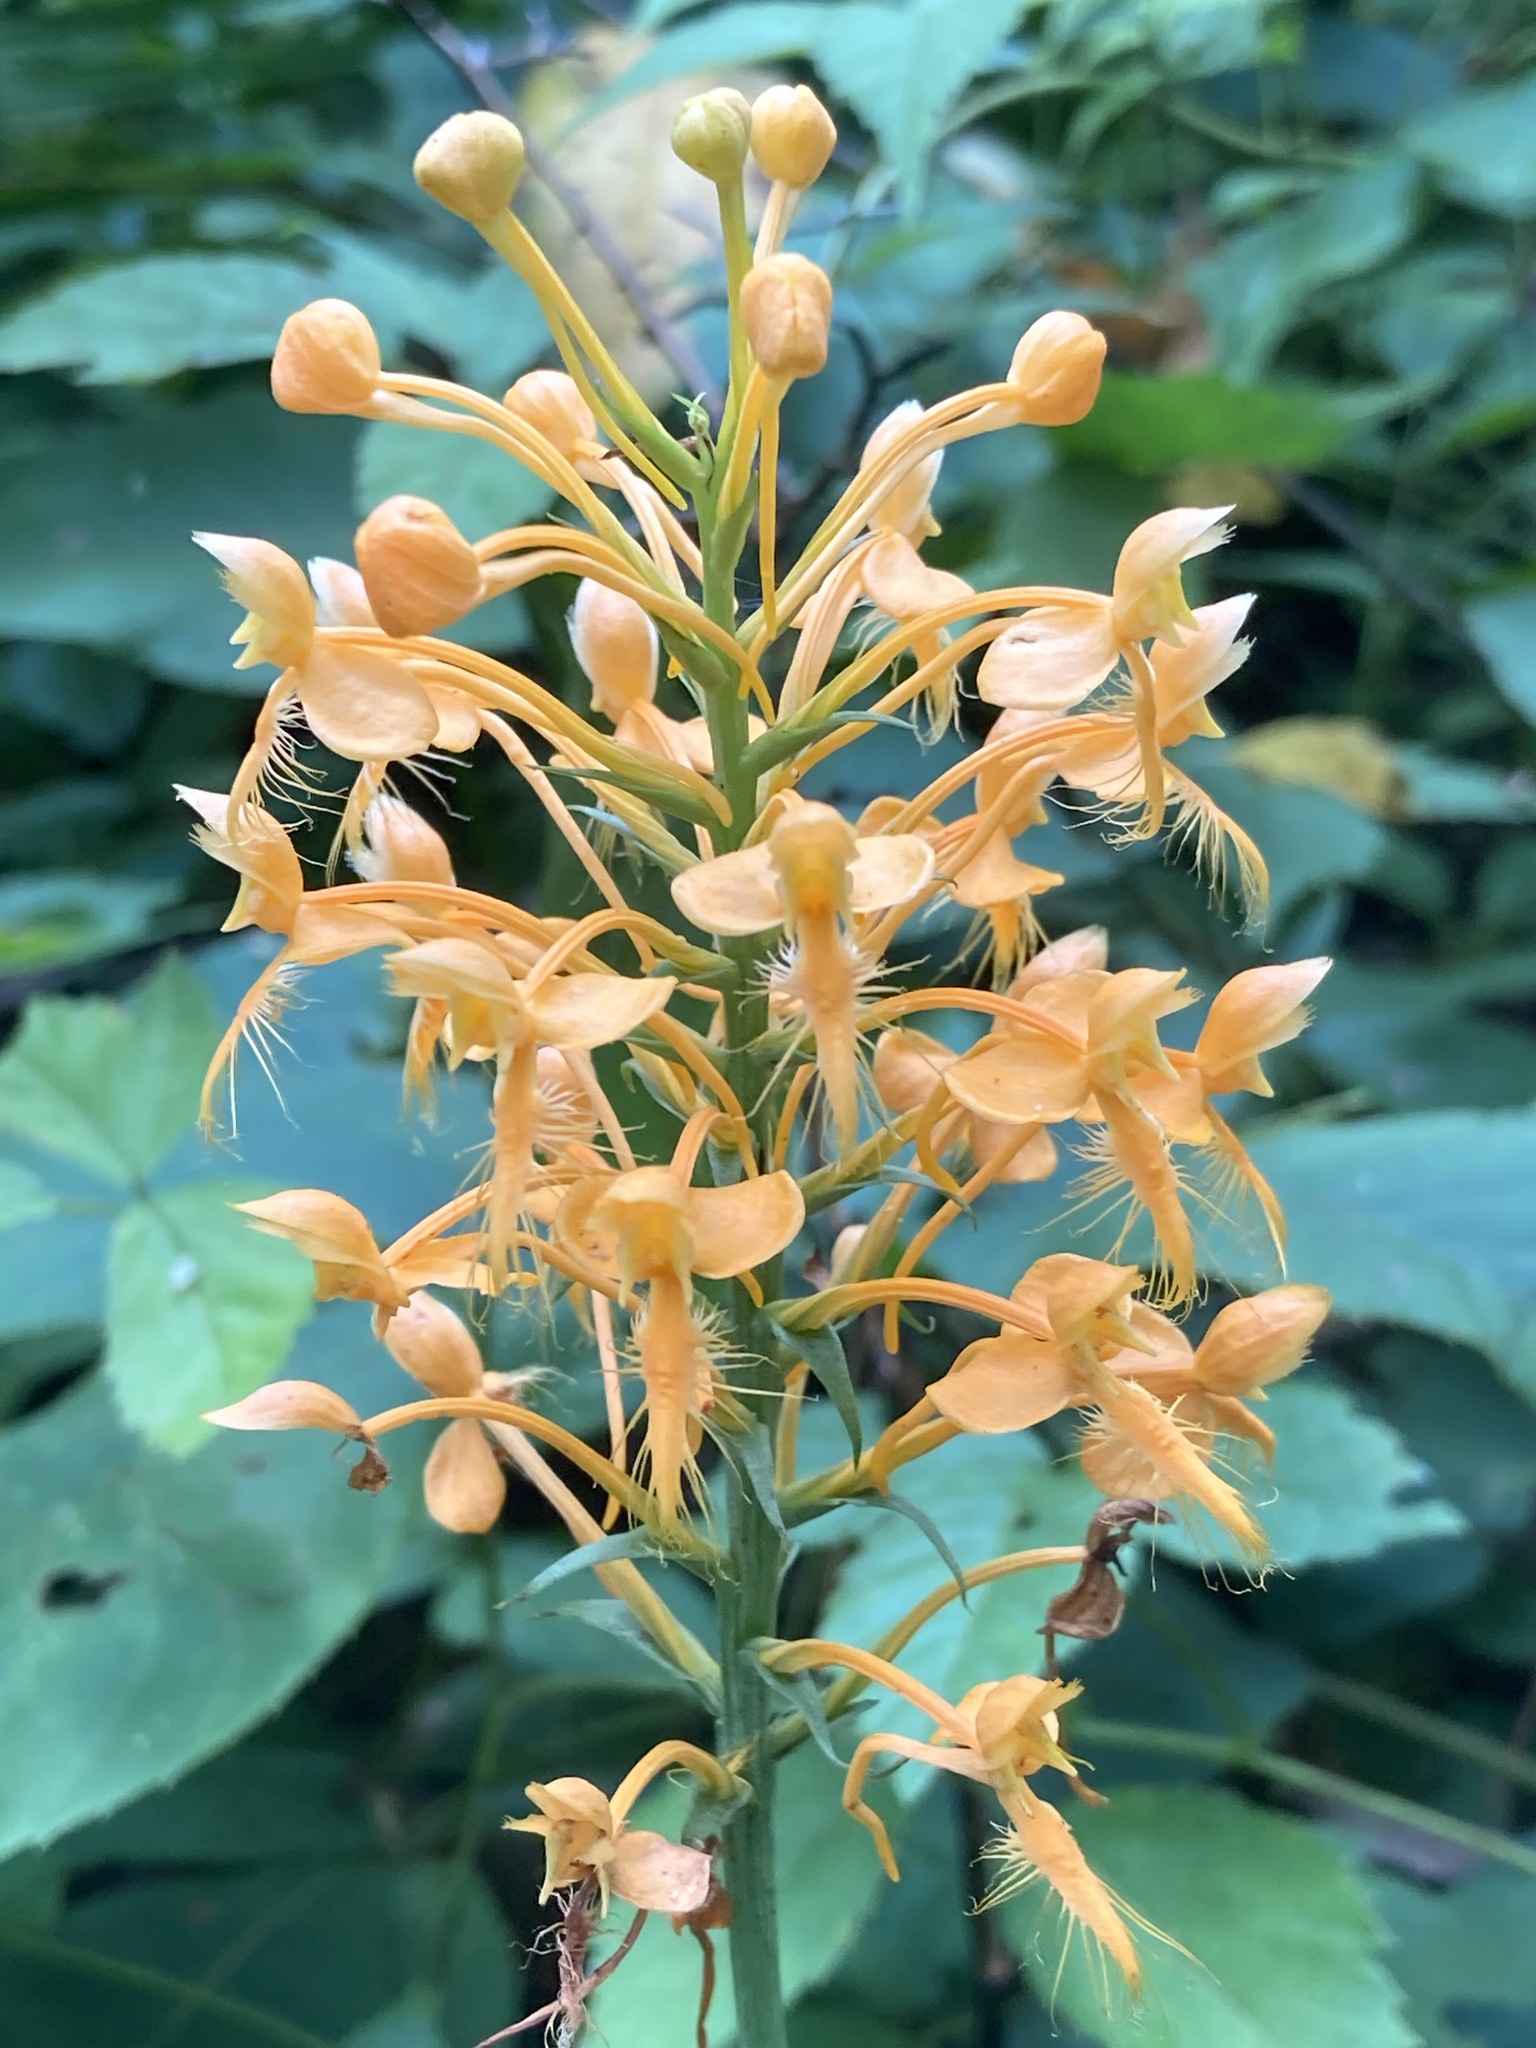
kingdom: Plantae
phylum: Tracheophyta
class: Liliopsida
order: Asparagales
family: Orchidaceae
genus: Platanthera
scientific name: Platanthera ciliaris
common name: Yellow fringed orchid
